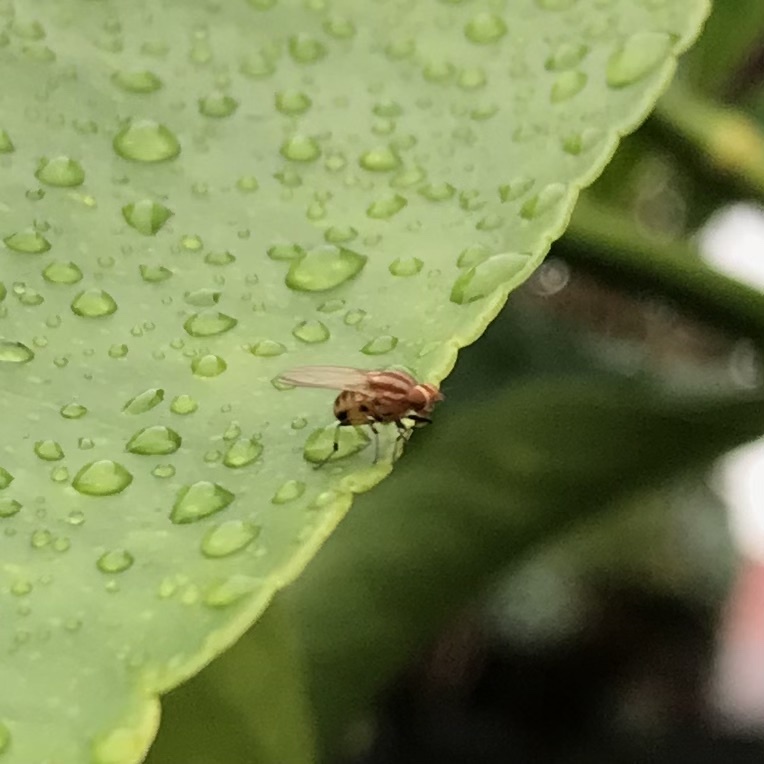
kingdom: Animalia
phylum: Arthropoda
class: Insecta
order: Diptera
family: Lauxaniidae
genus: Sapromyza
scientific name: Sapromyza brunneovittata
